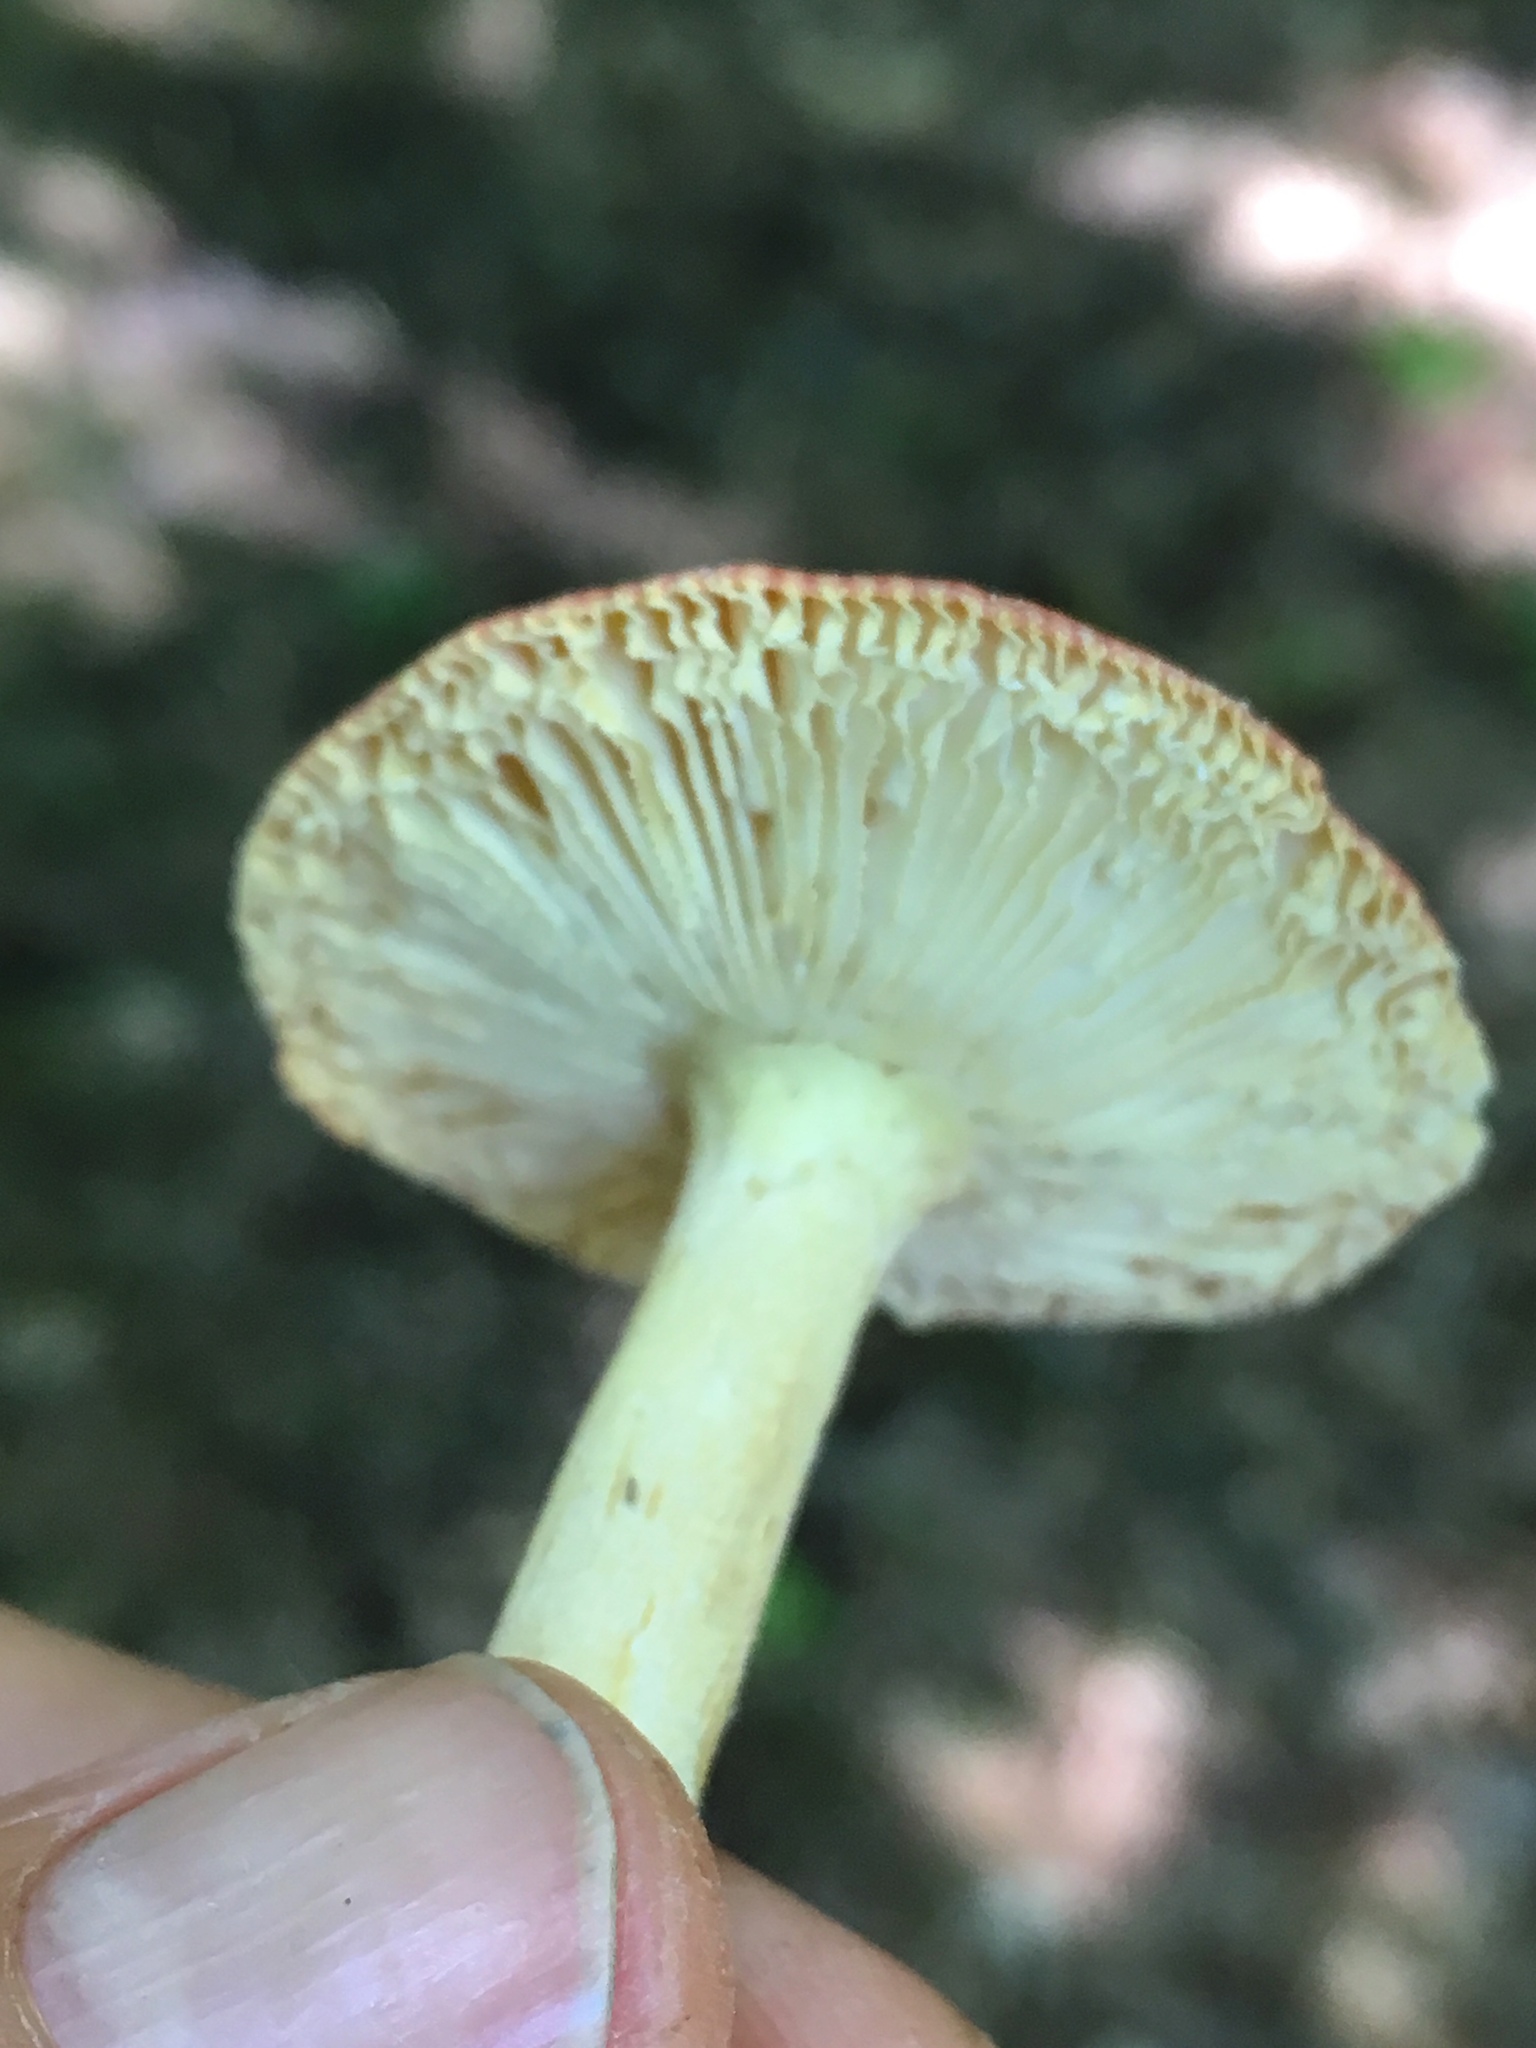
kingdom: Fungi
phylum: Basidiomycota
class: Agaricomycetes
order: Agaricales
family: Amanitaceae
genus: Amanita
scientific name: Amanita parcivolvata
